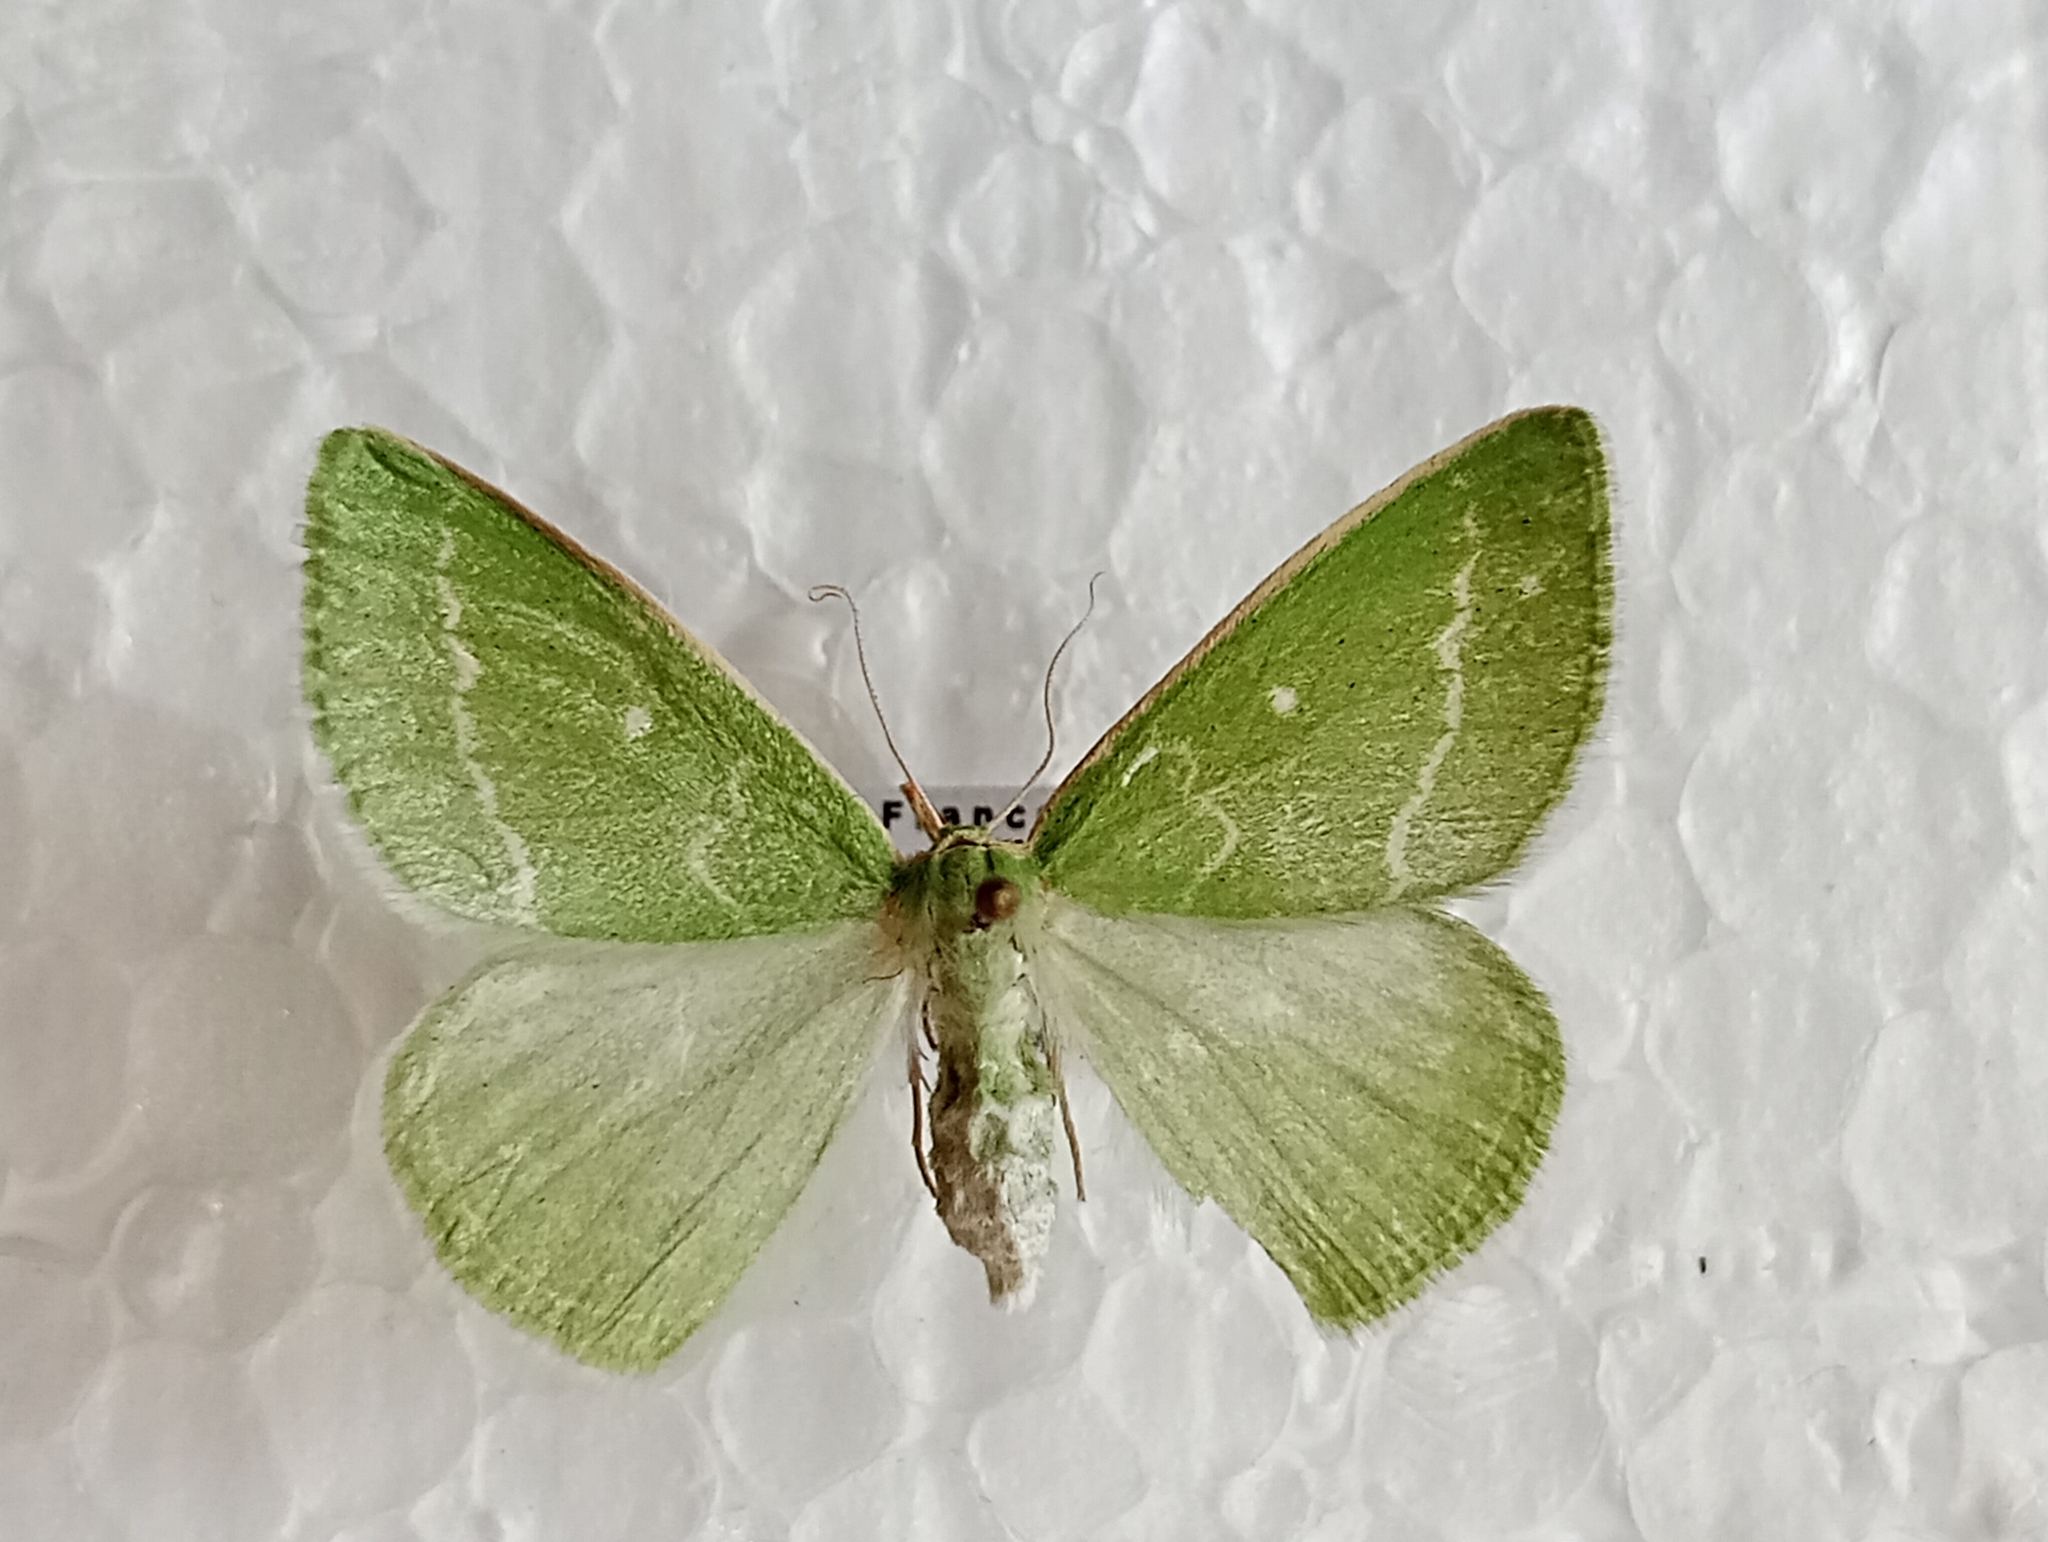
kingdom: Animalia
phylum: Arthropoda
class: Insecta
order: Lepidoptera
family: Geometridae
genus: Thetidia
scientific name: Thetidia smaragdaria
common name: Essex emerald
